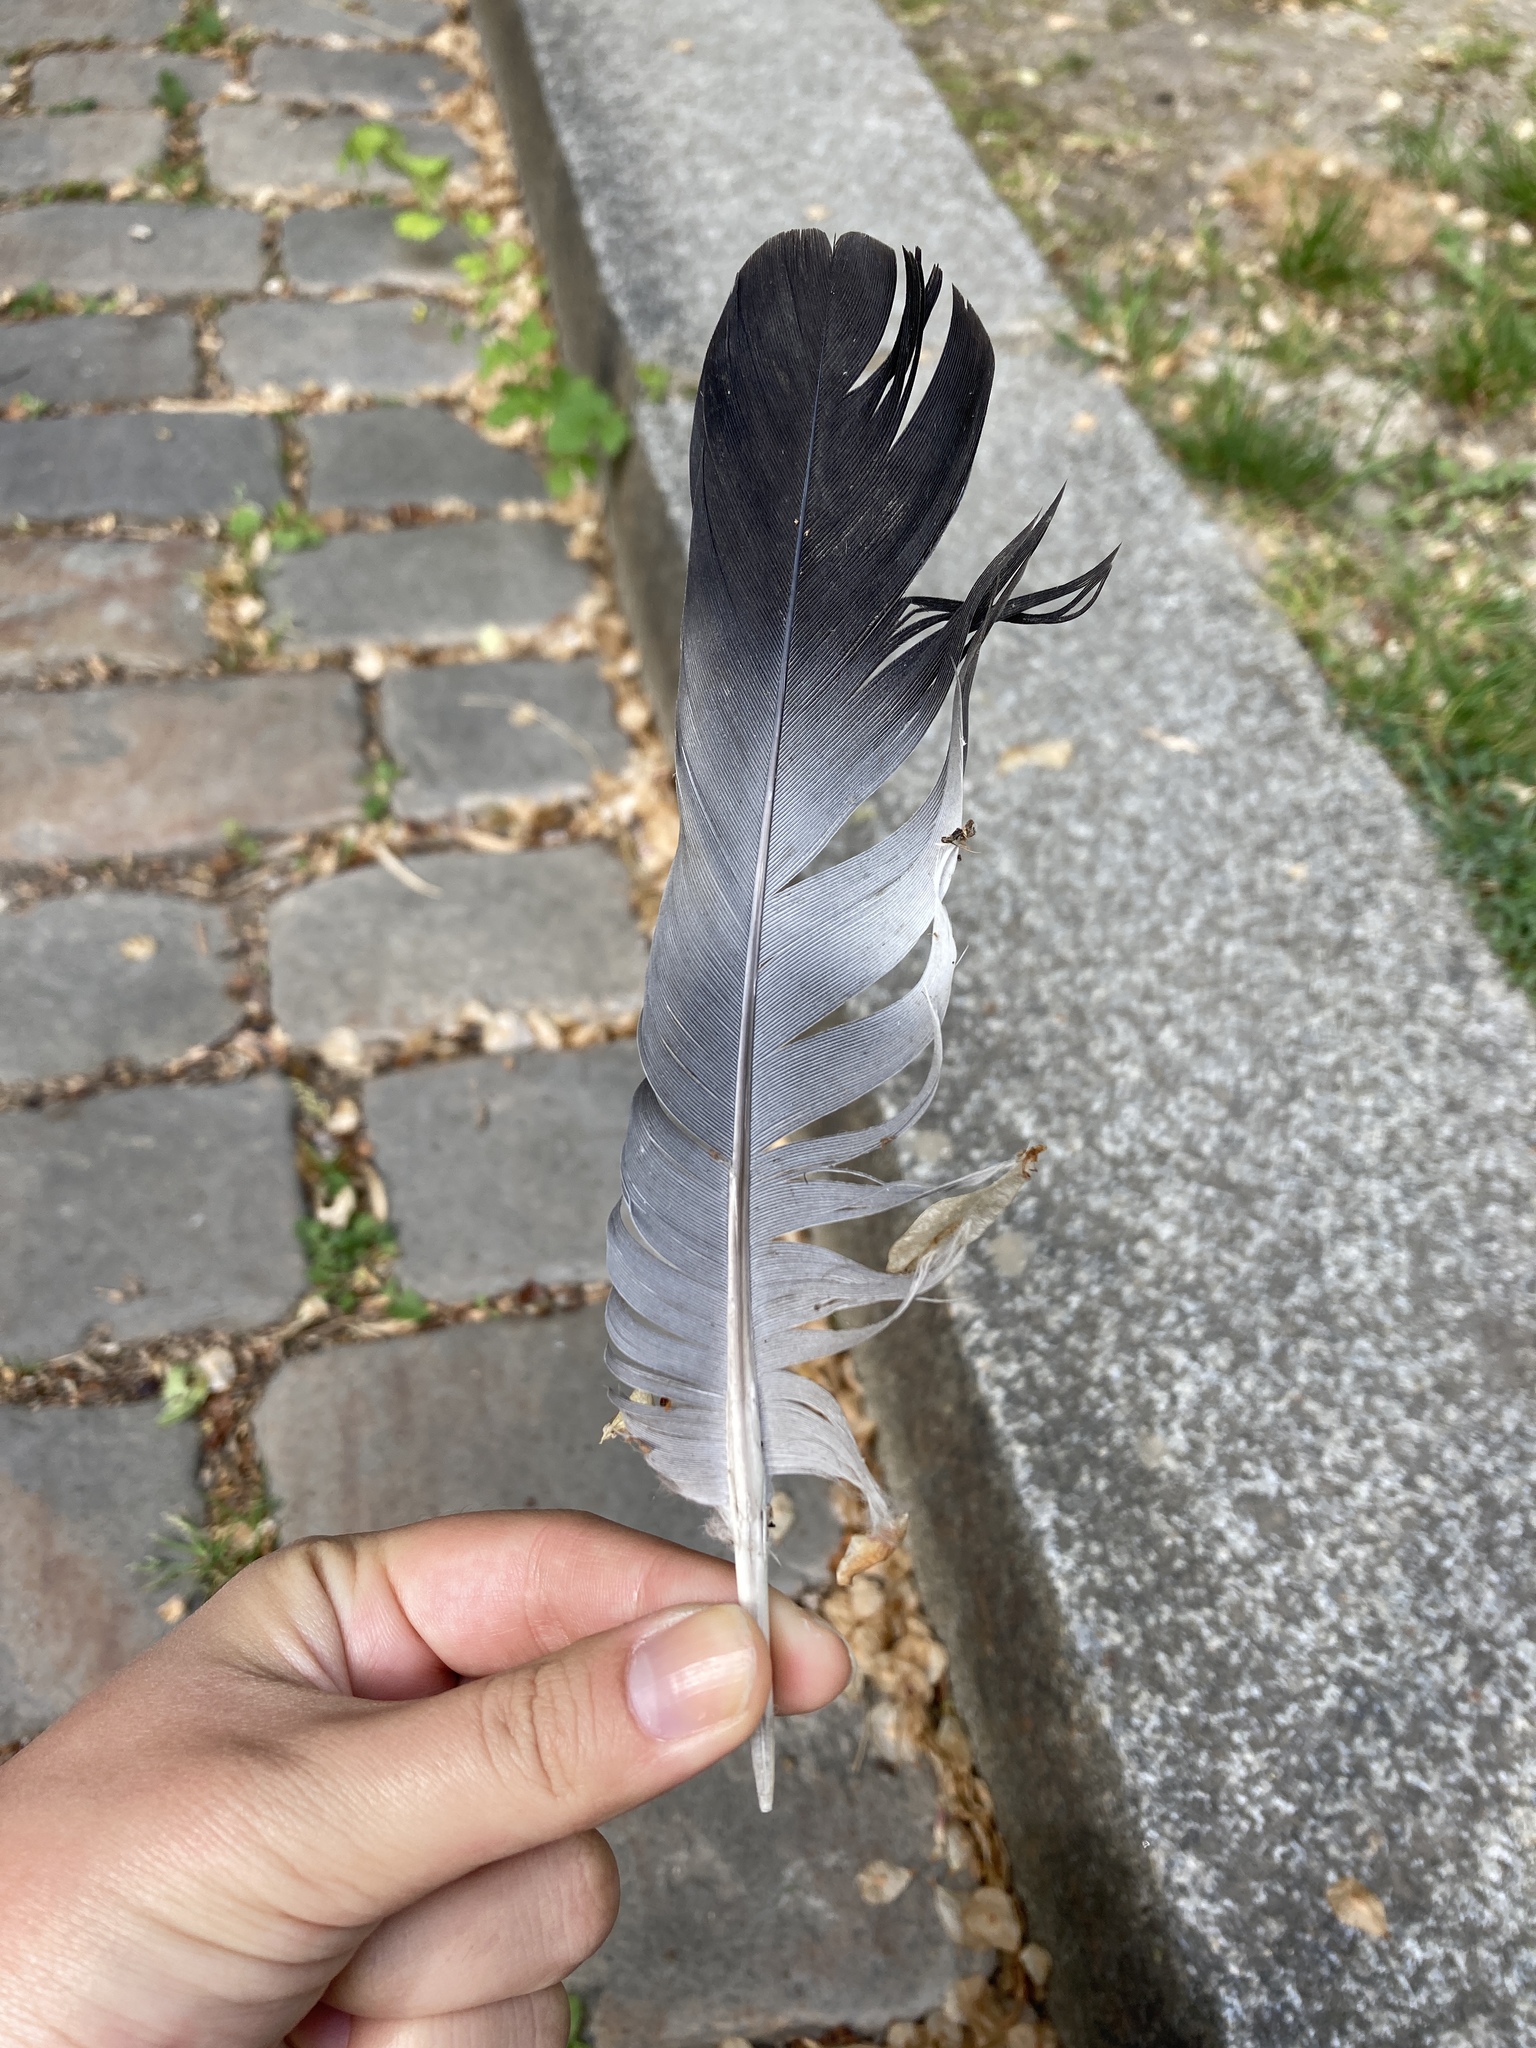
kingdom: Animalia
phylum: Chordata
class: Aves
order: Columbiformes
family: Columbidae
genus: Columba
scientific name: Columba palumbus
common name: Common wood pigeon
